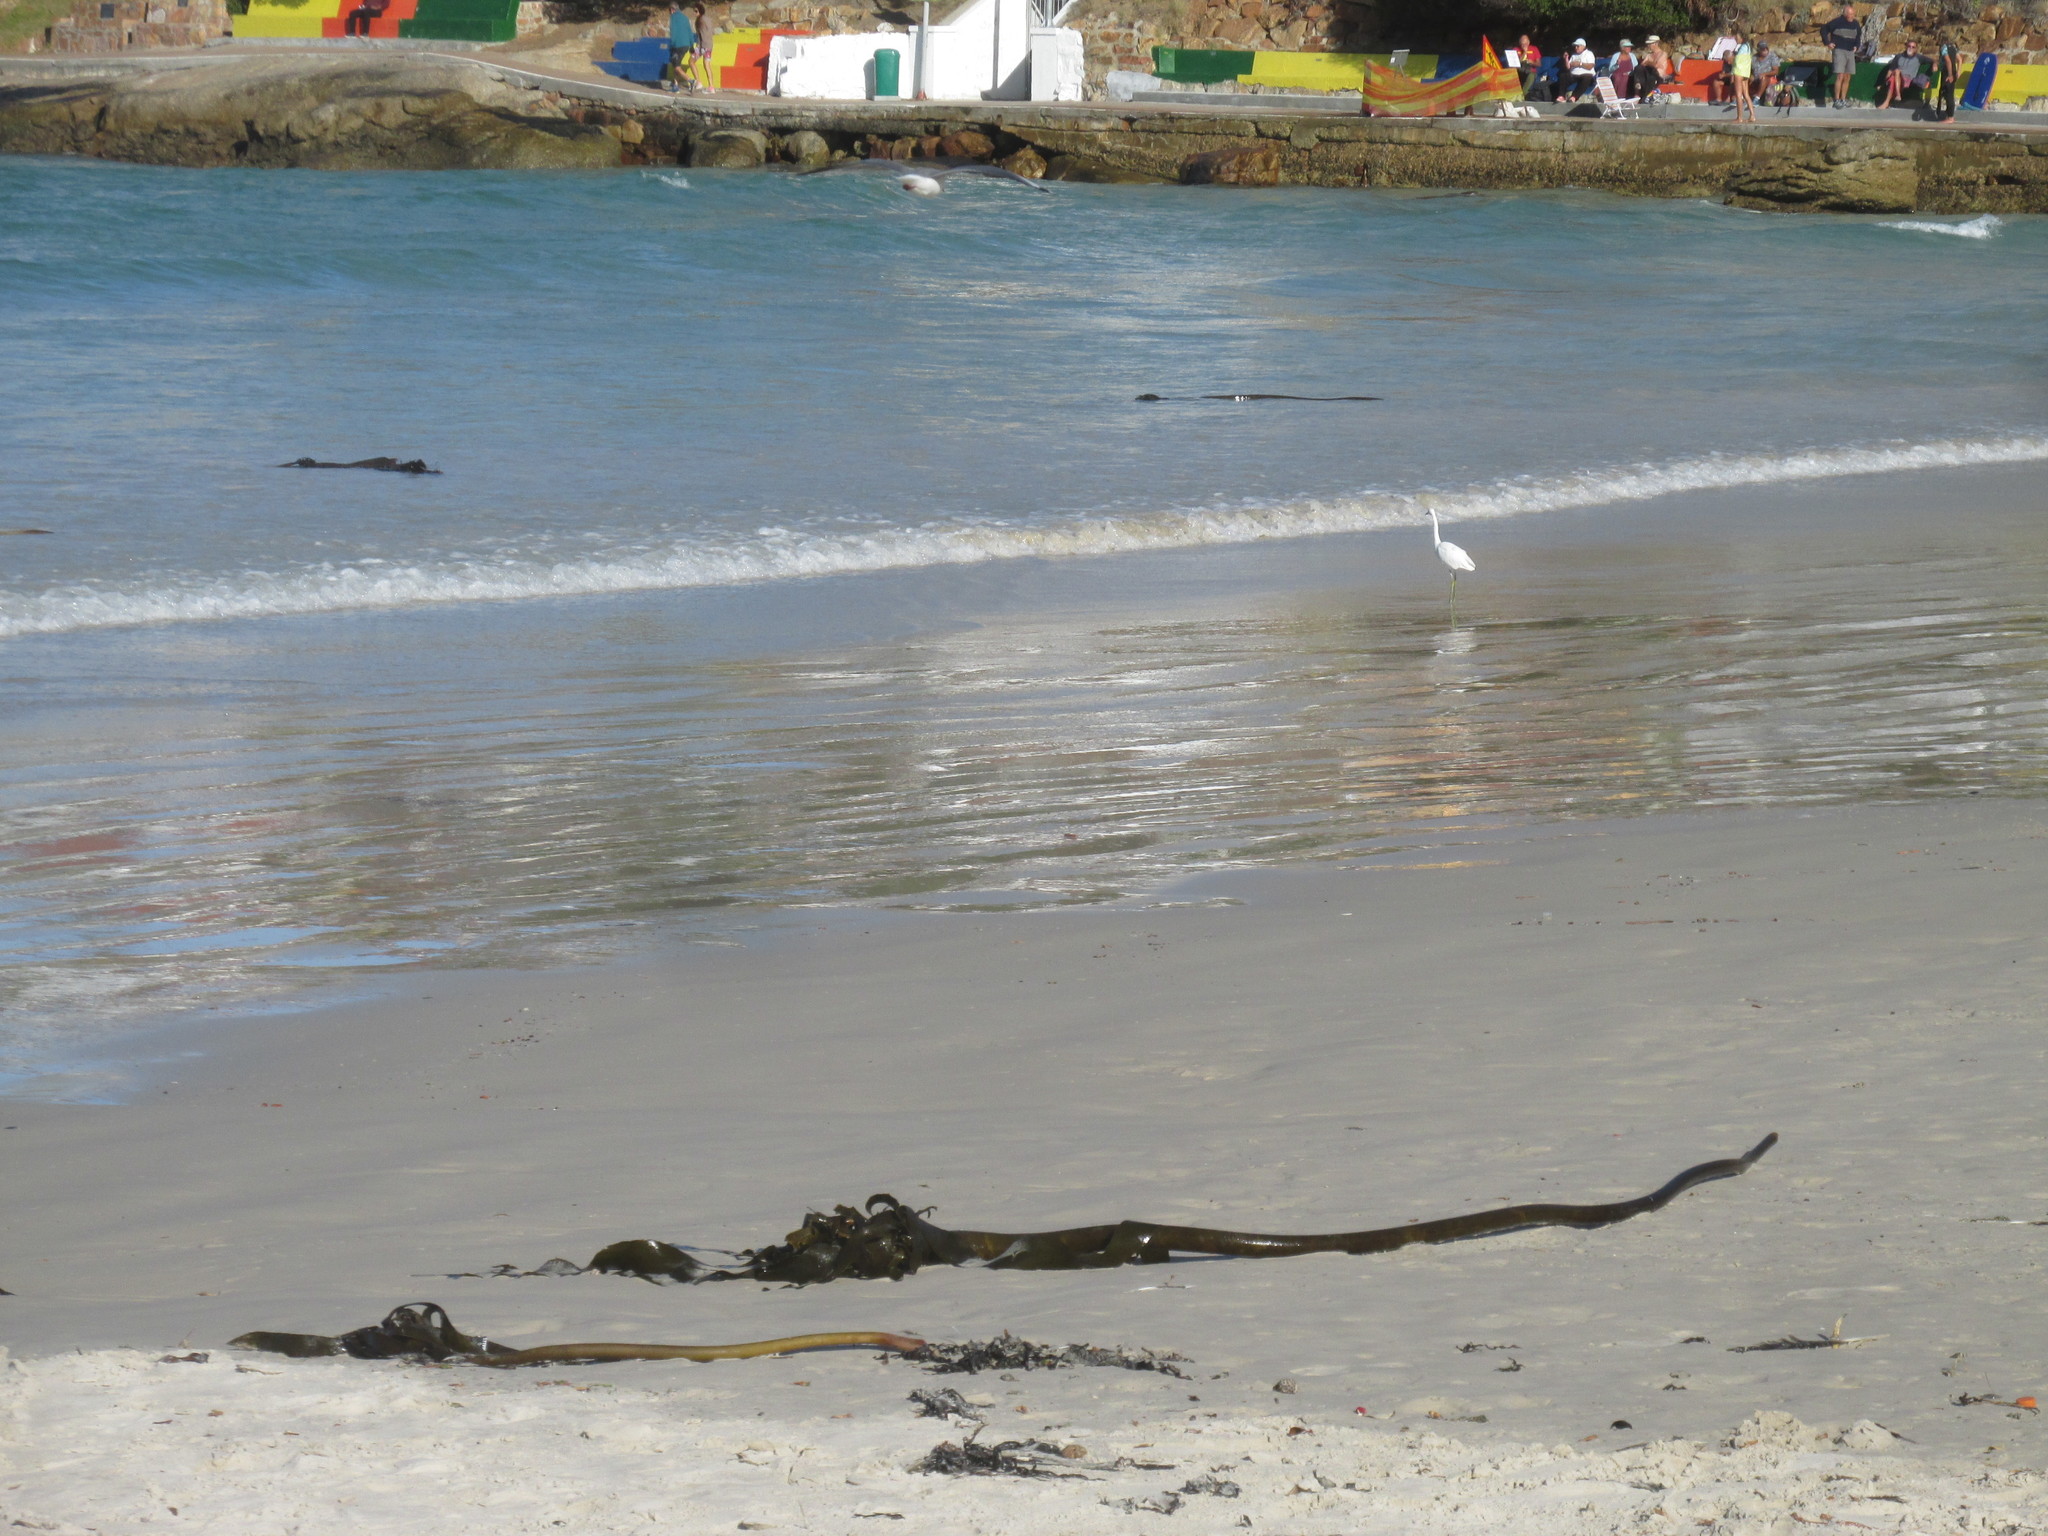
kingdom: Animalia
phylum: Chordata
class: Aves
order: Pelecaniformes
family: Ardeidae
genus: Egretta
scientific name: Egretta garzetta
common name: Little egret
